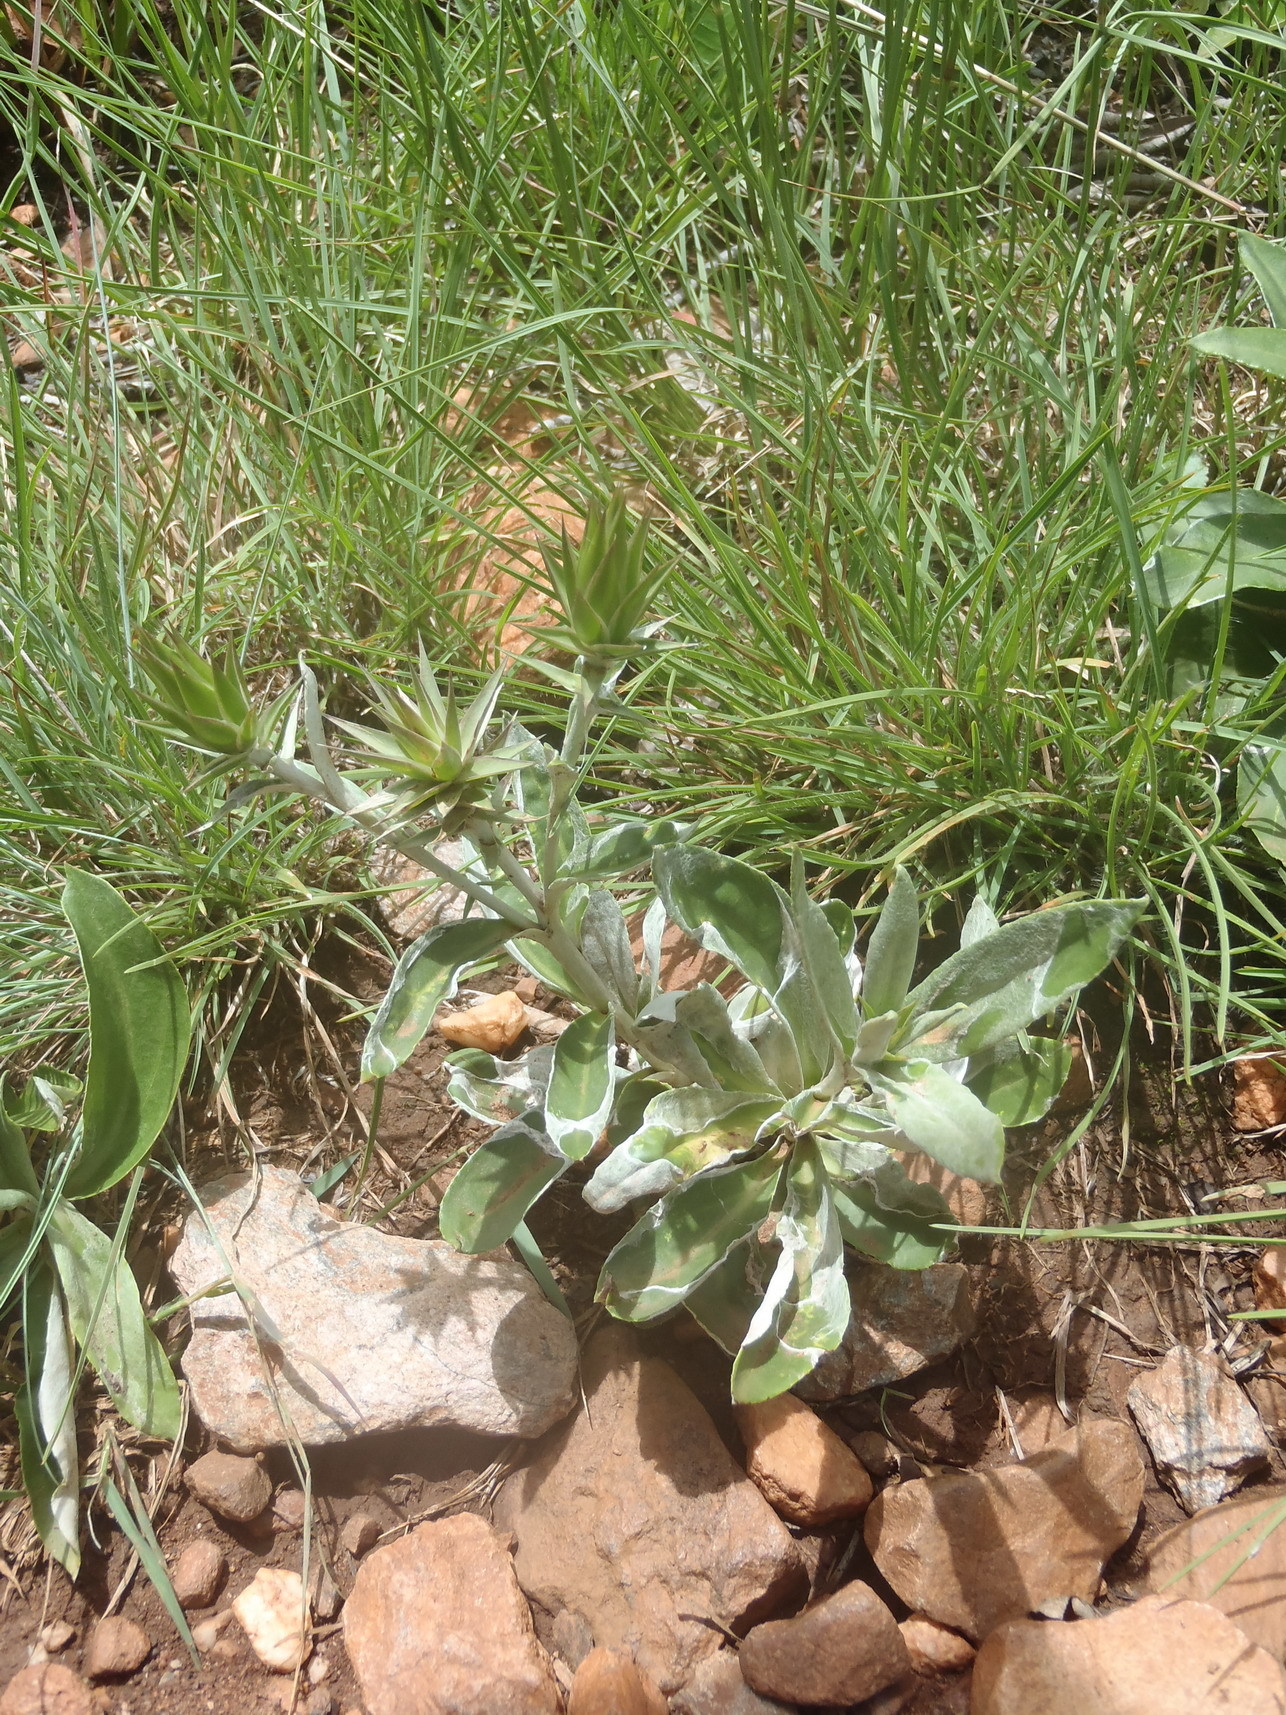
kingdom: Plantae
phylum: Tracheophyta
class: Magnoliopsida
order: Asterales
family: Asteraceae
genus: Macledium
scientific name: Macledium zeyheri
